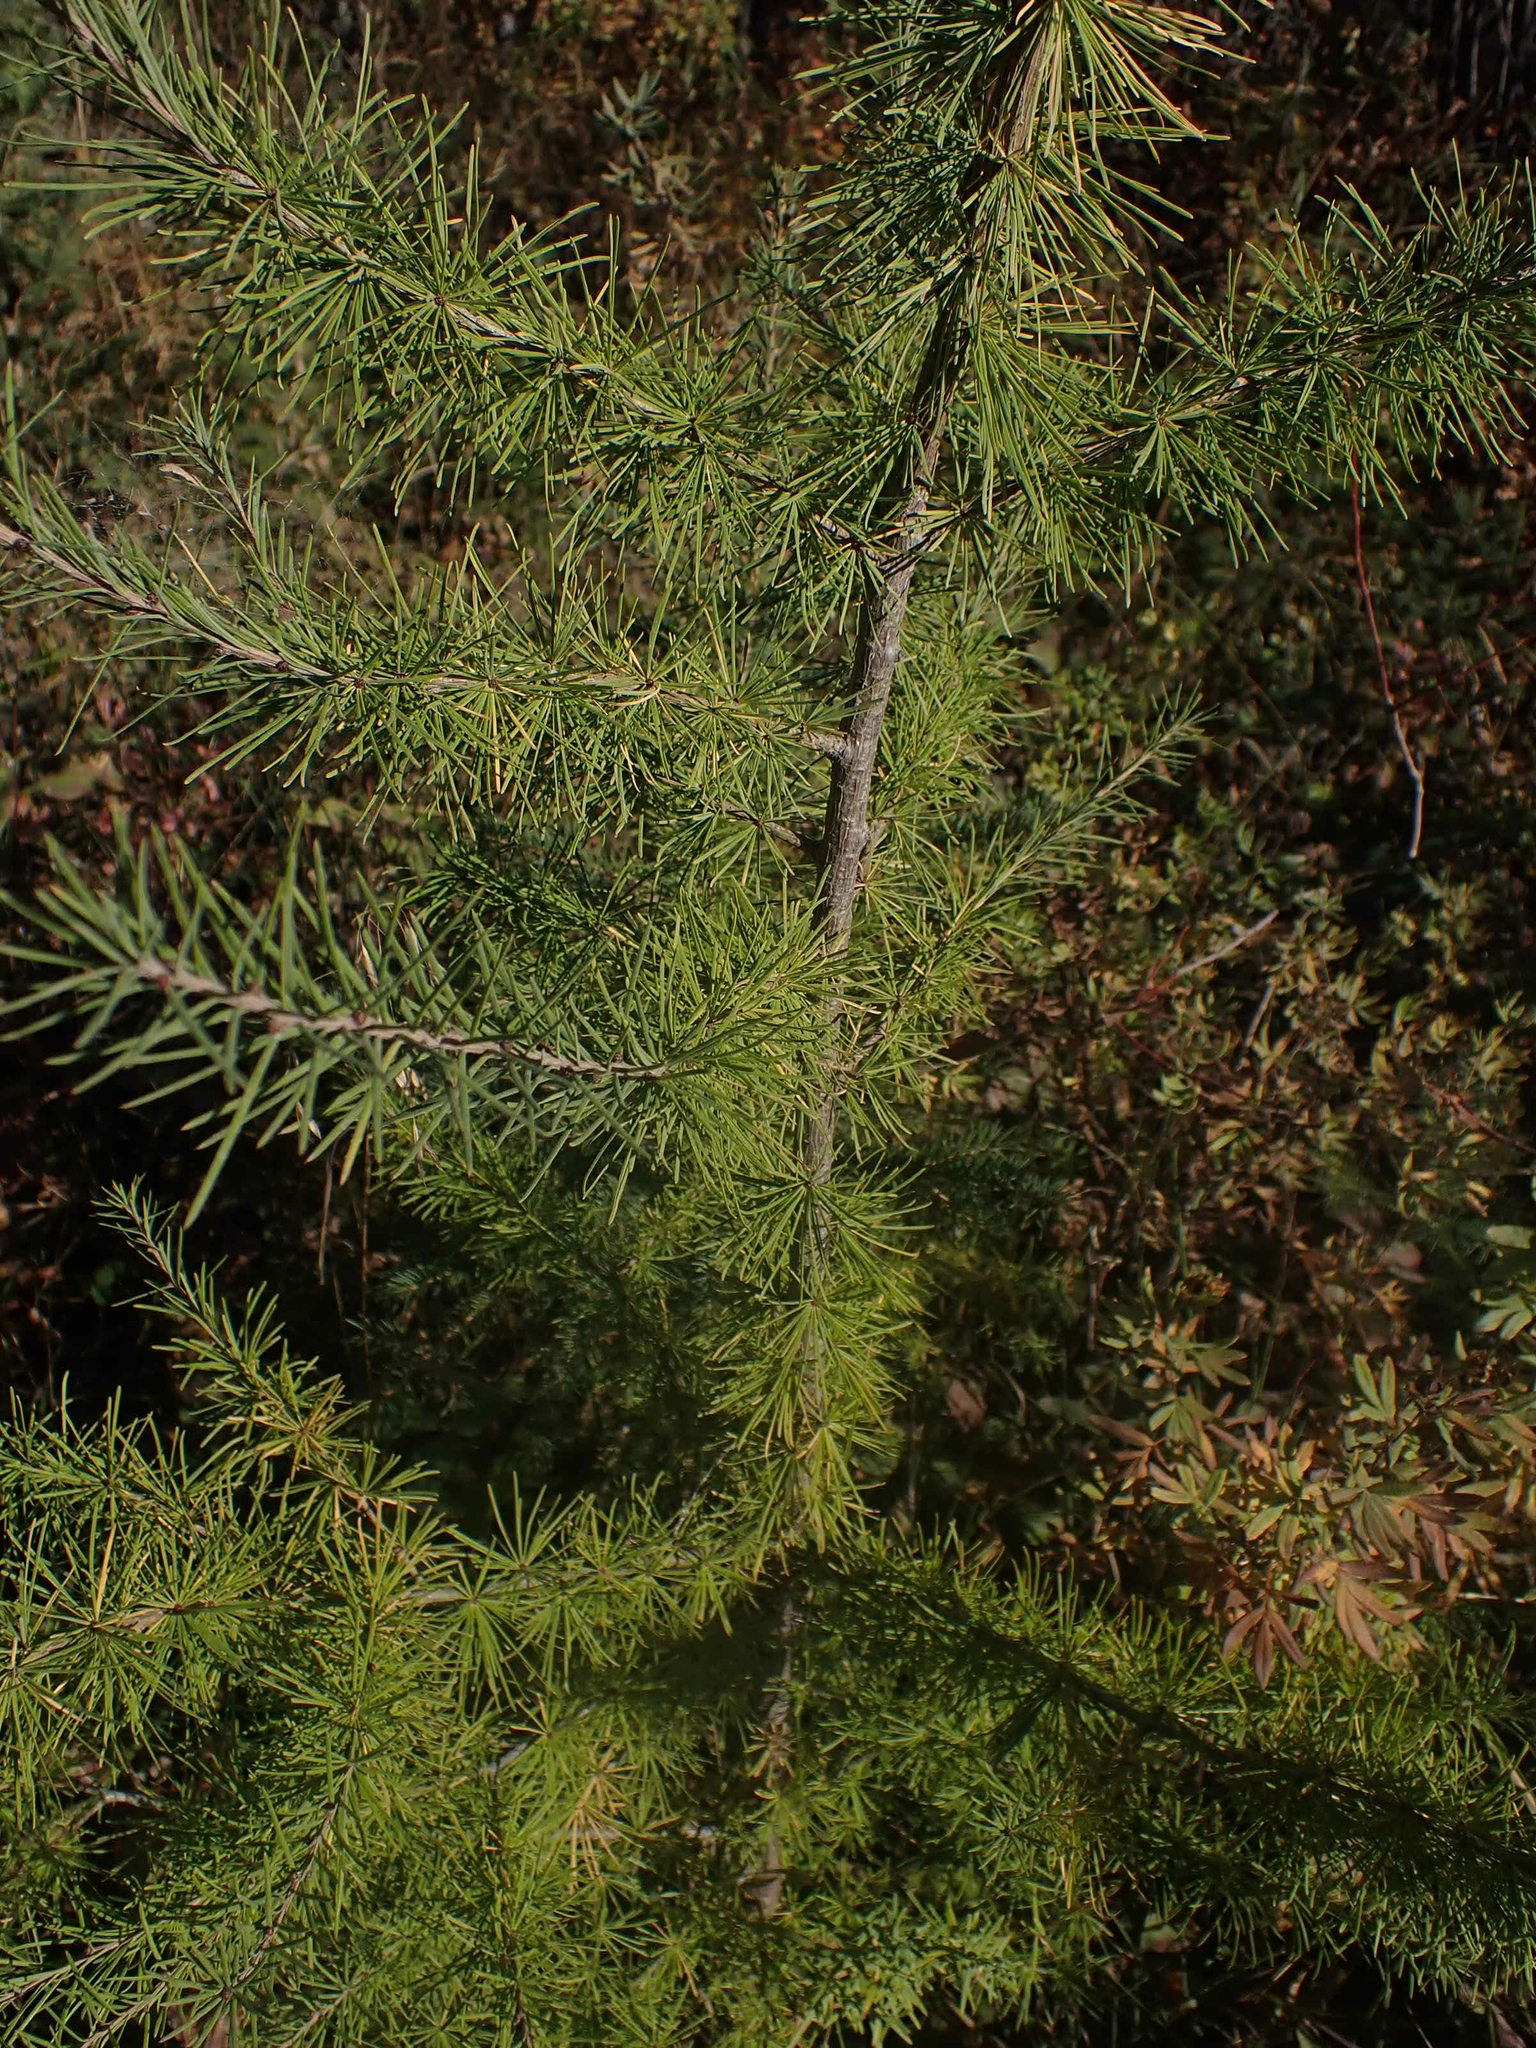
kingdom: Plantae
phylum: Tracheophyta
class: Pinopsida
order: Pinales
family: Pinaceae
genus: Larix
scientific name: Larix laricina
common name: American larch
